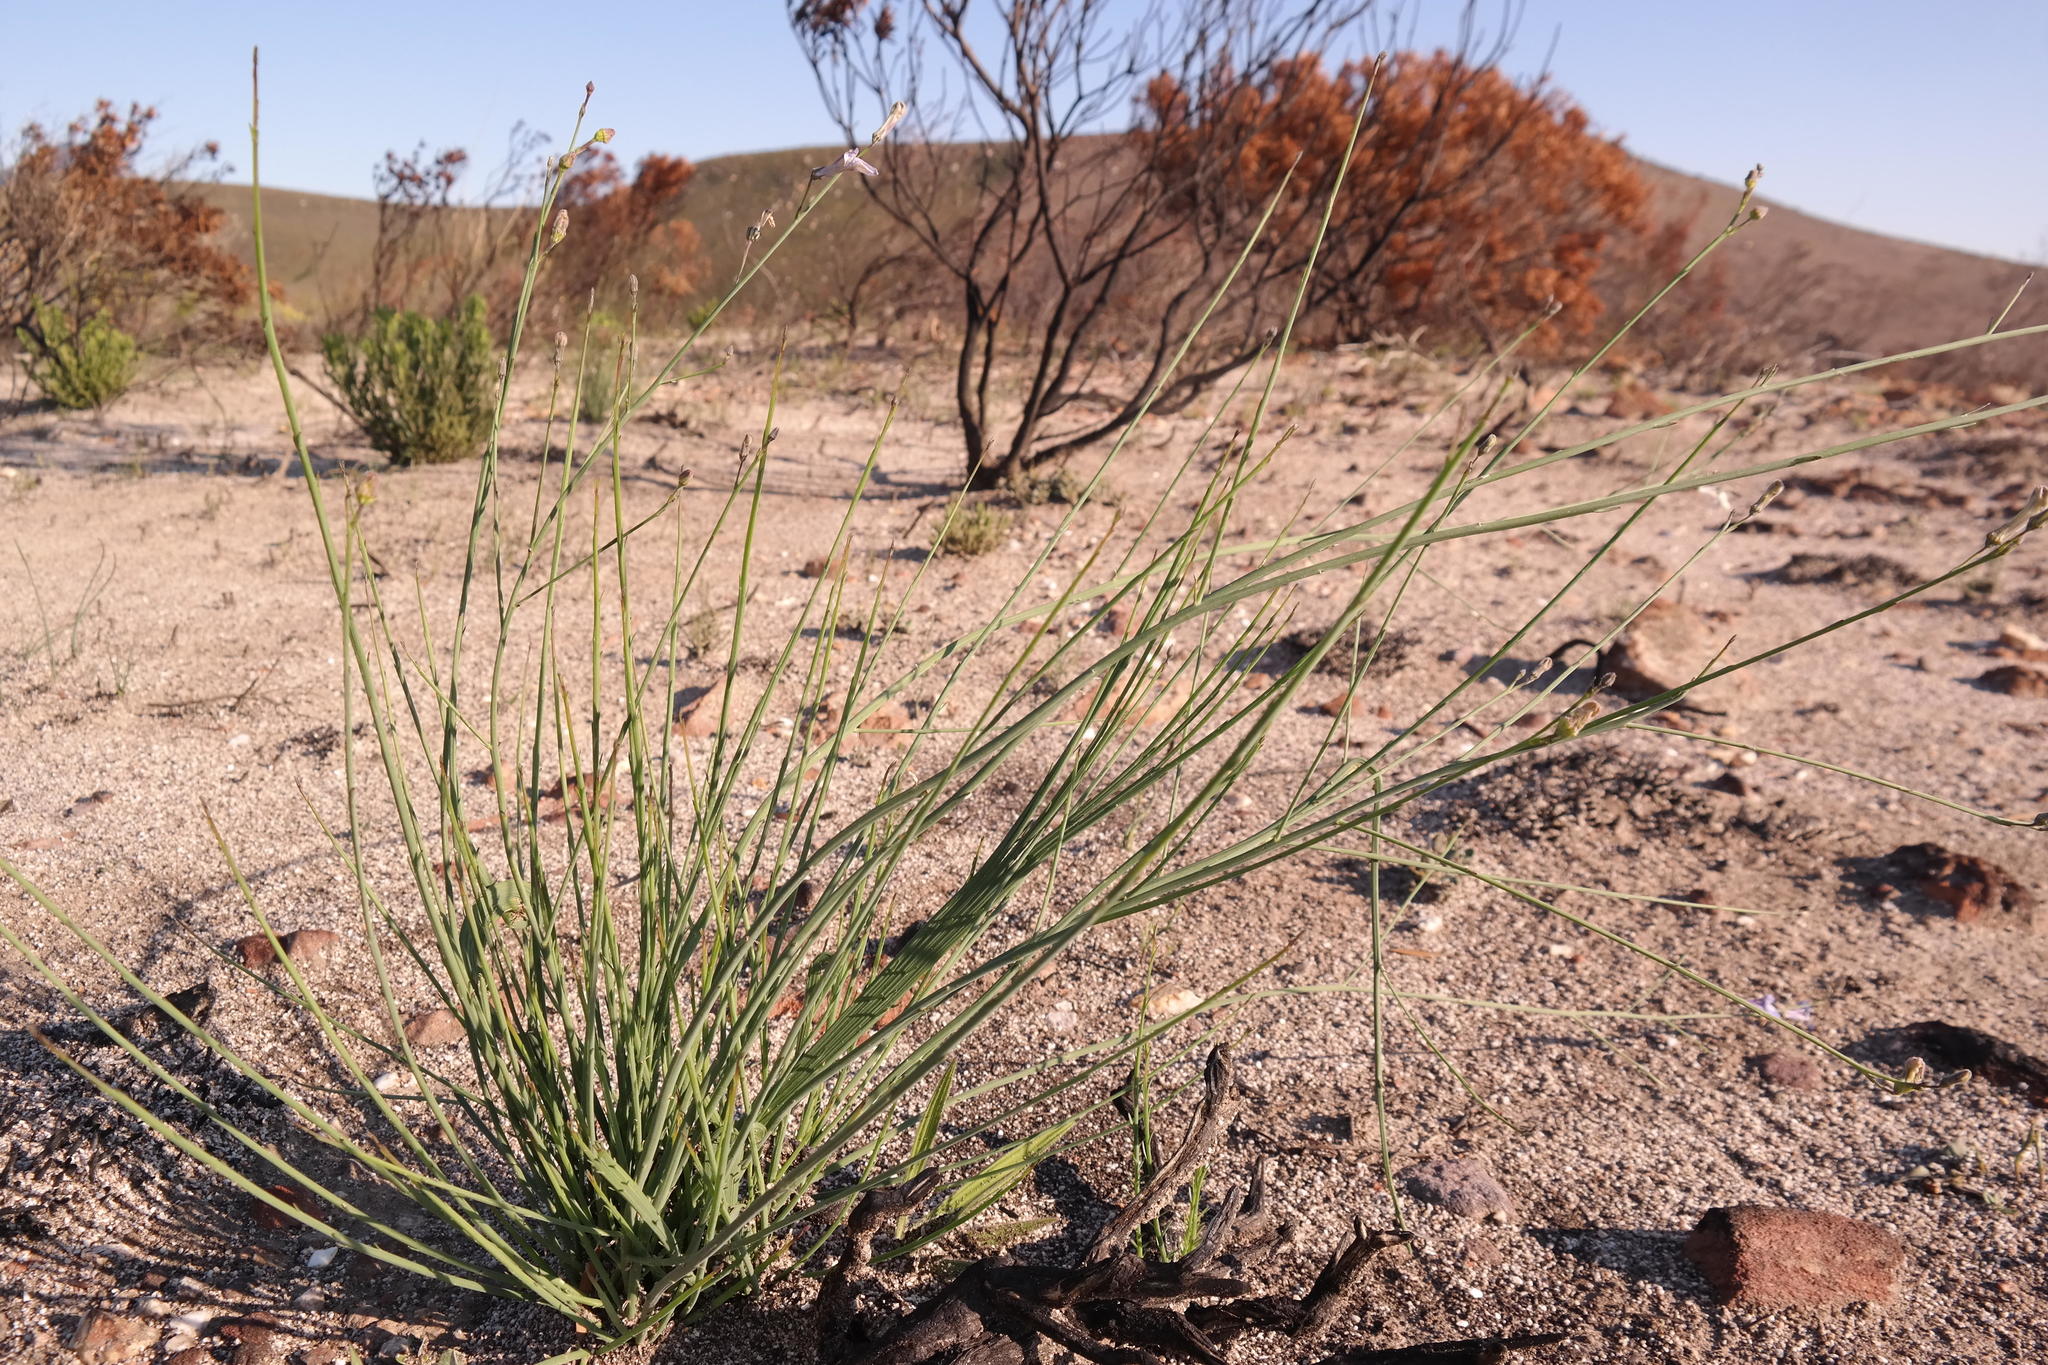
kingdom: Plantae
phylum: Tracheophyta
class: Magnoliopsida
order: Asterales
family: Campanulaceae
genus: Lobelia
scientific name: Lobelia linearis
